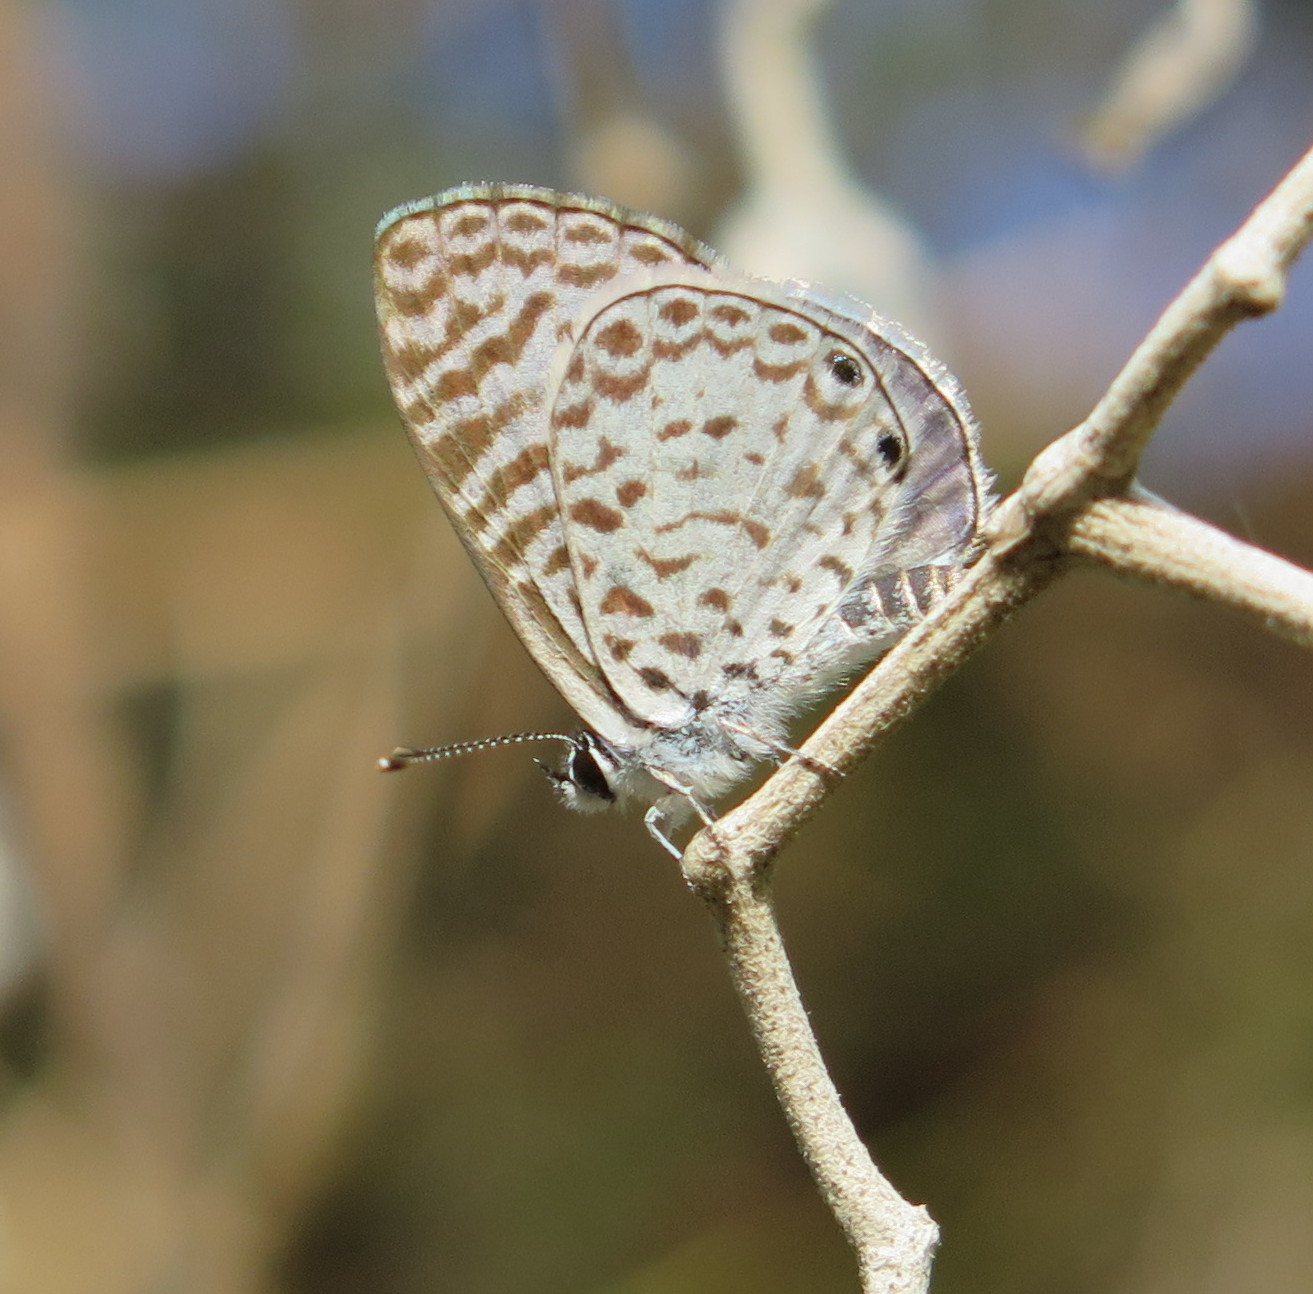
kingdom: Animalia
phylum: Arthropoda
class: Insecta
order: Lepidoptera
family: Lycaenidae
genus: Leptotes
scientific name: Leptotes cassius
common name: Cassius blue
